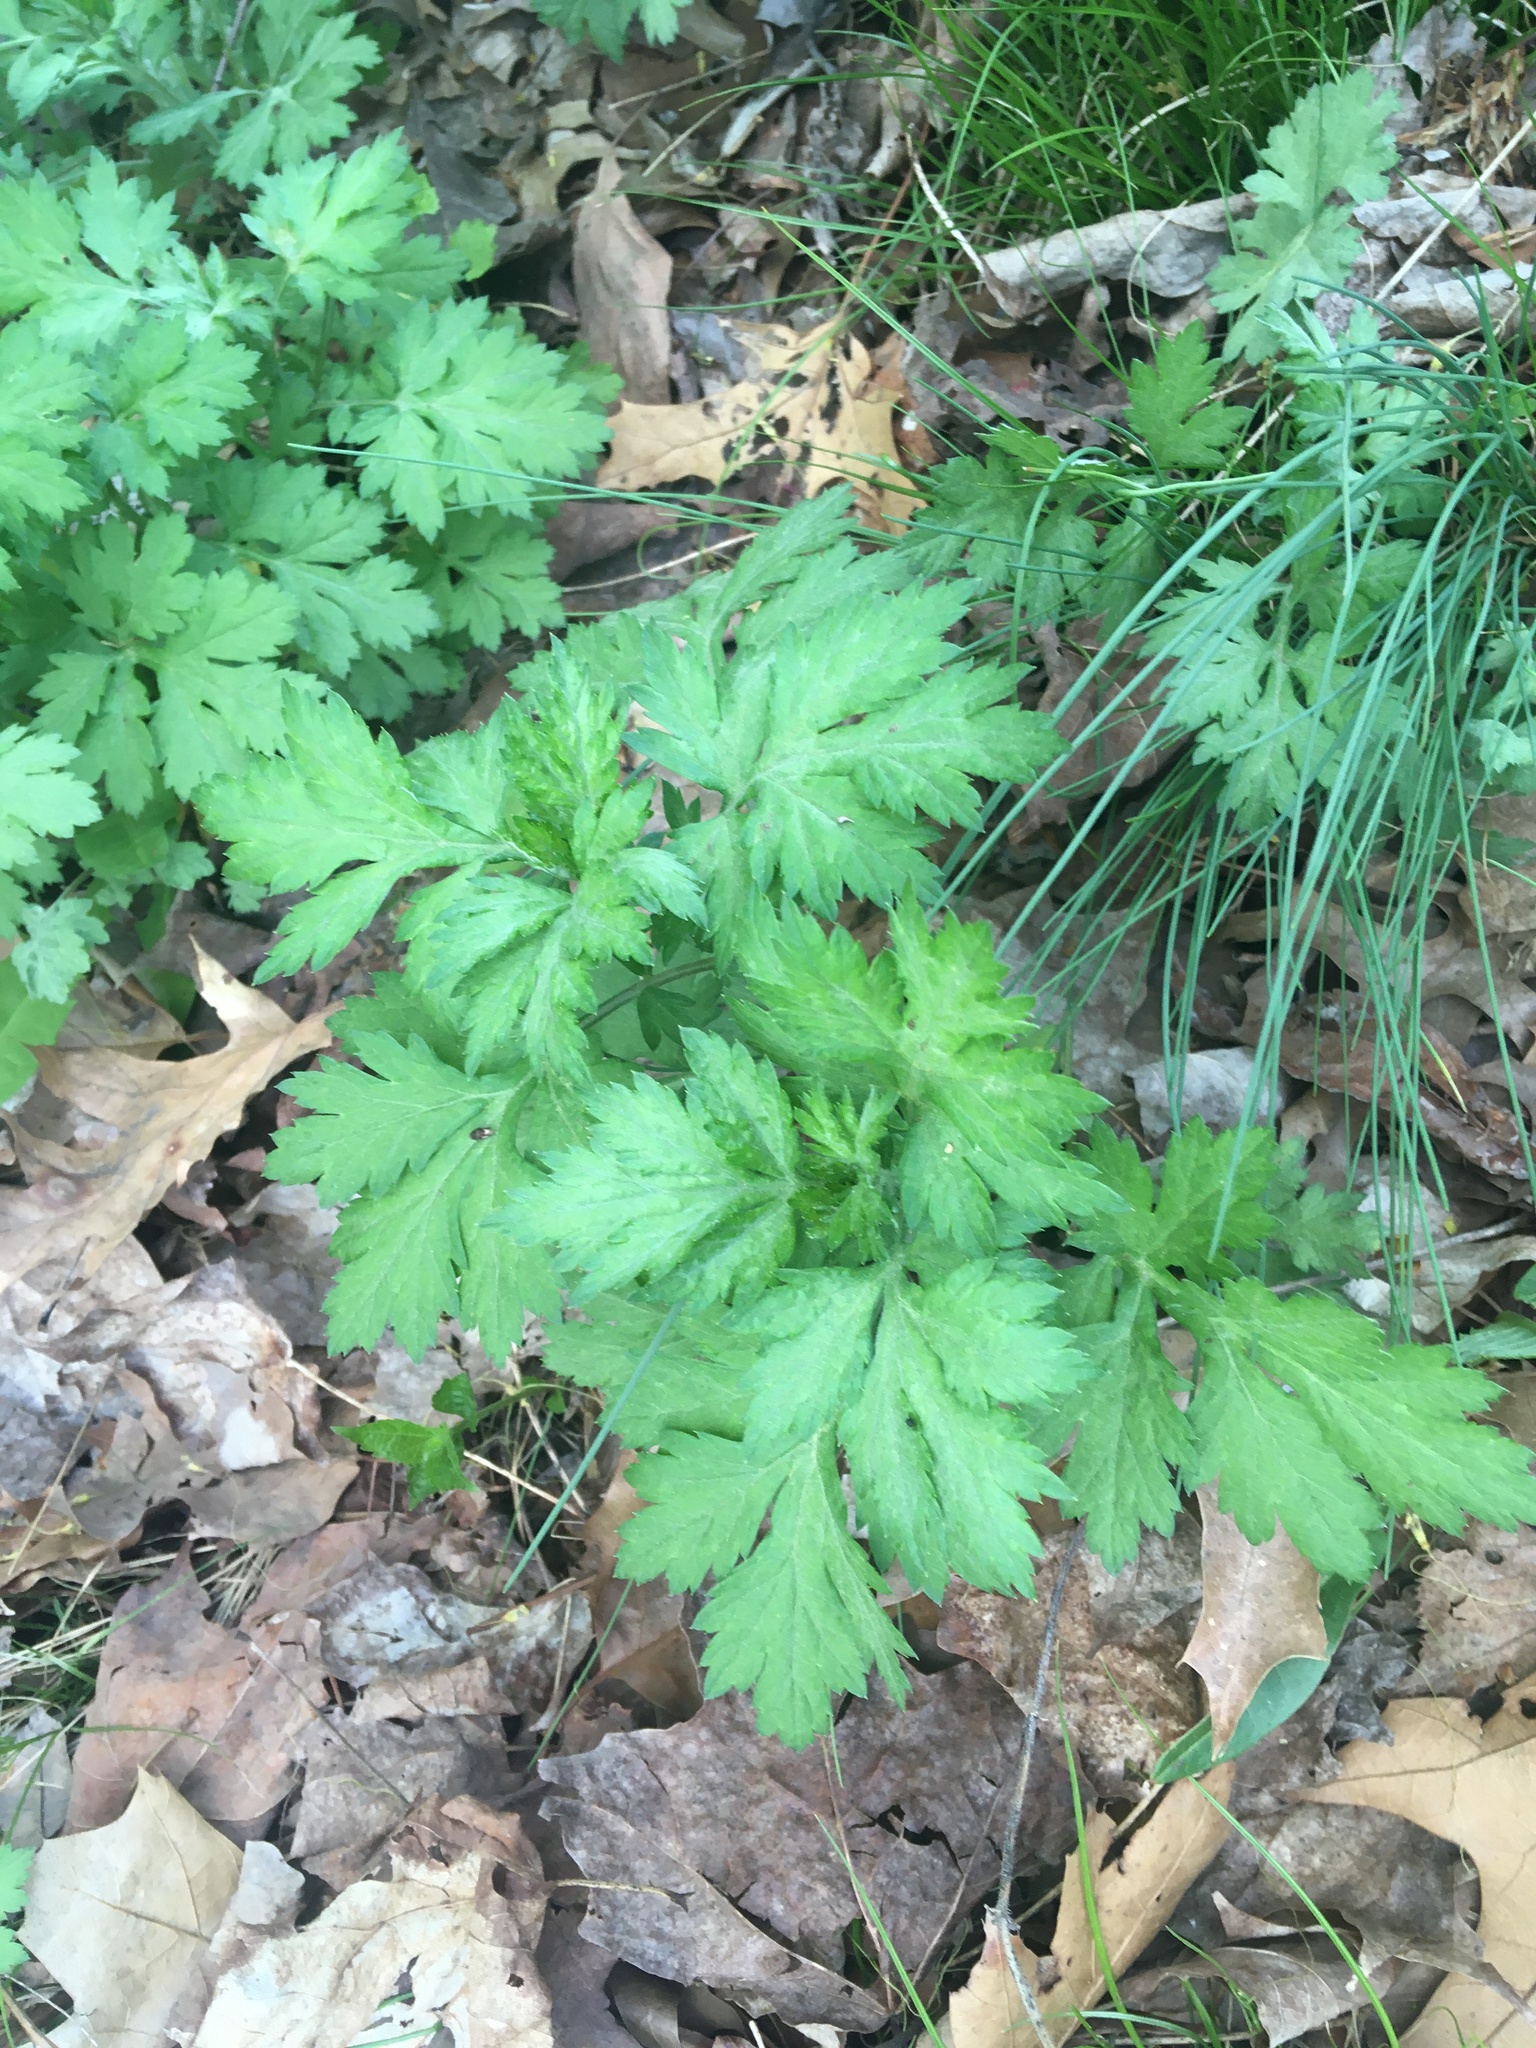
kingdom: Plantae
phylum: Tracheophyta
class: Magnoliopsida
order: Asterales
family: Asteraceae
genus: Artemisia
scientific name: Artemisia vulgaris
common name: Mugwort
